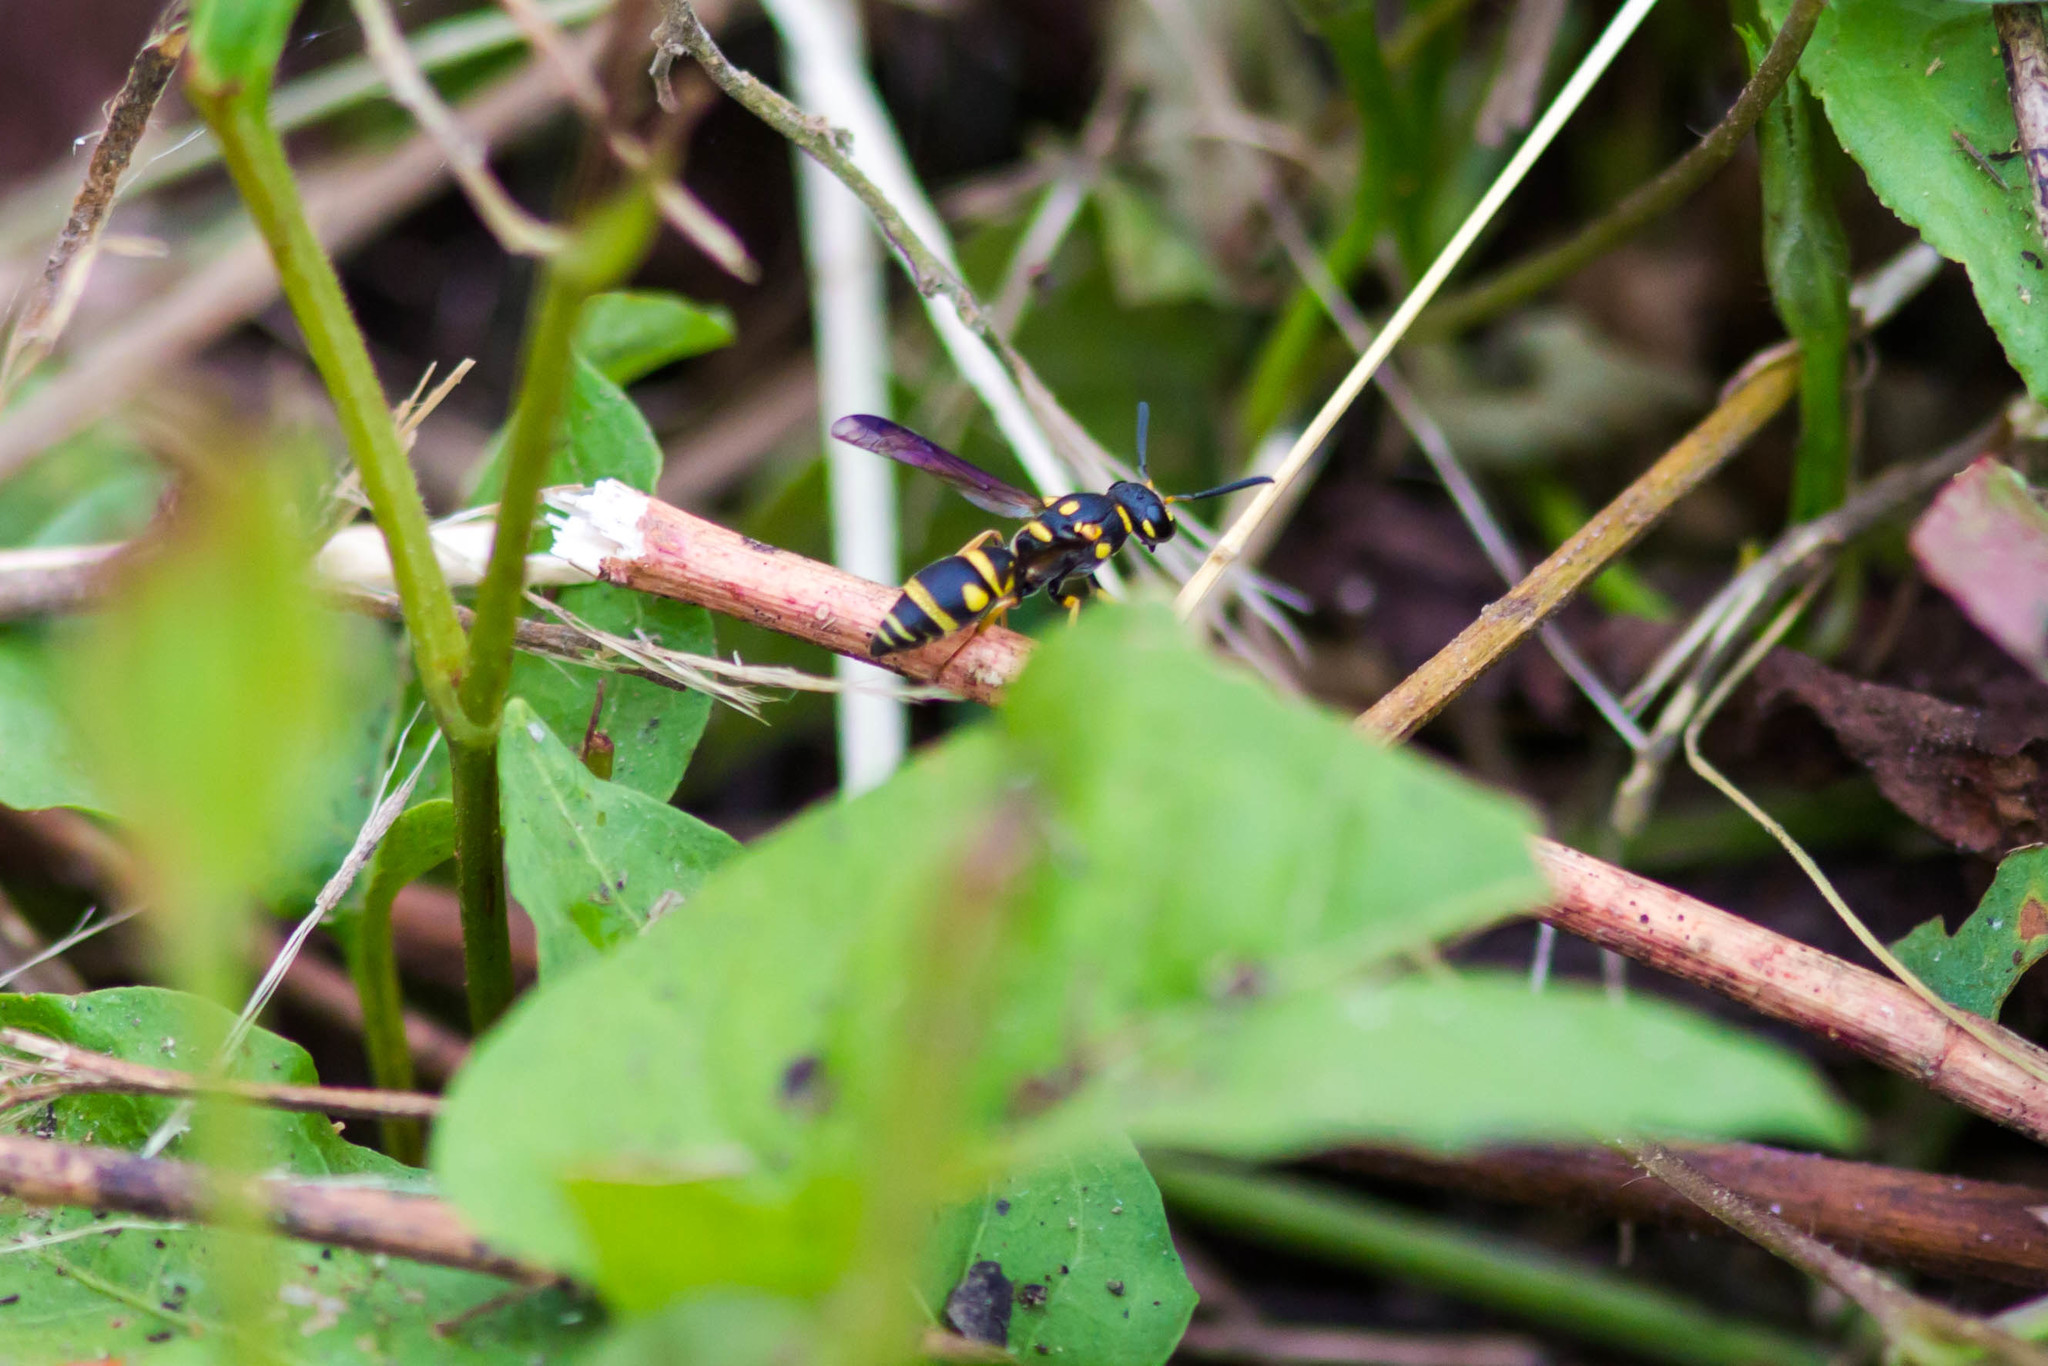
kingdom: Animalia
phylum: Arthropoda
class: Insecta
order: Hymenoptera
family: Eumenidae
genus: Parancistrocerus
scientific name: Parancistrocerus fulvipes
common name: Potter wasp
